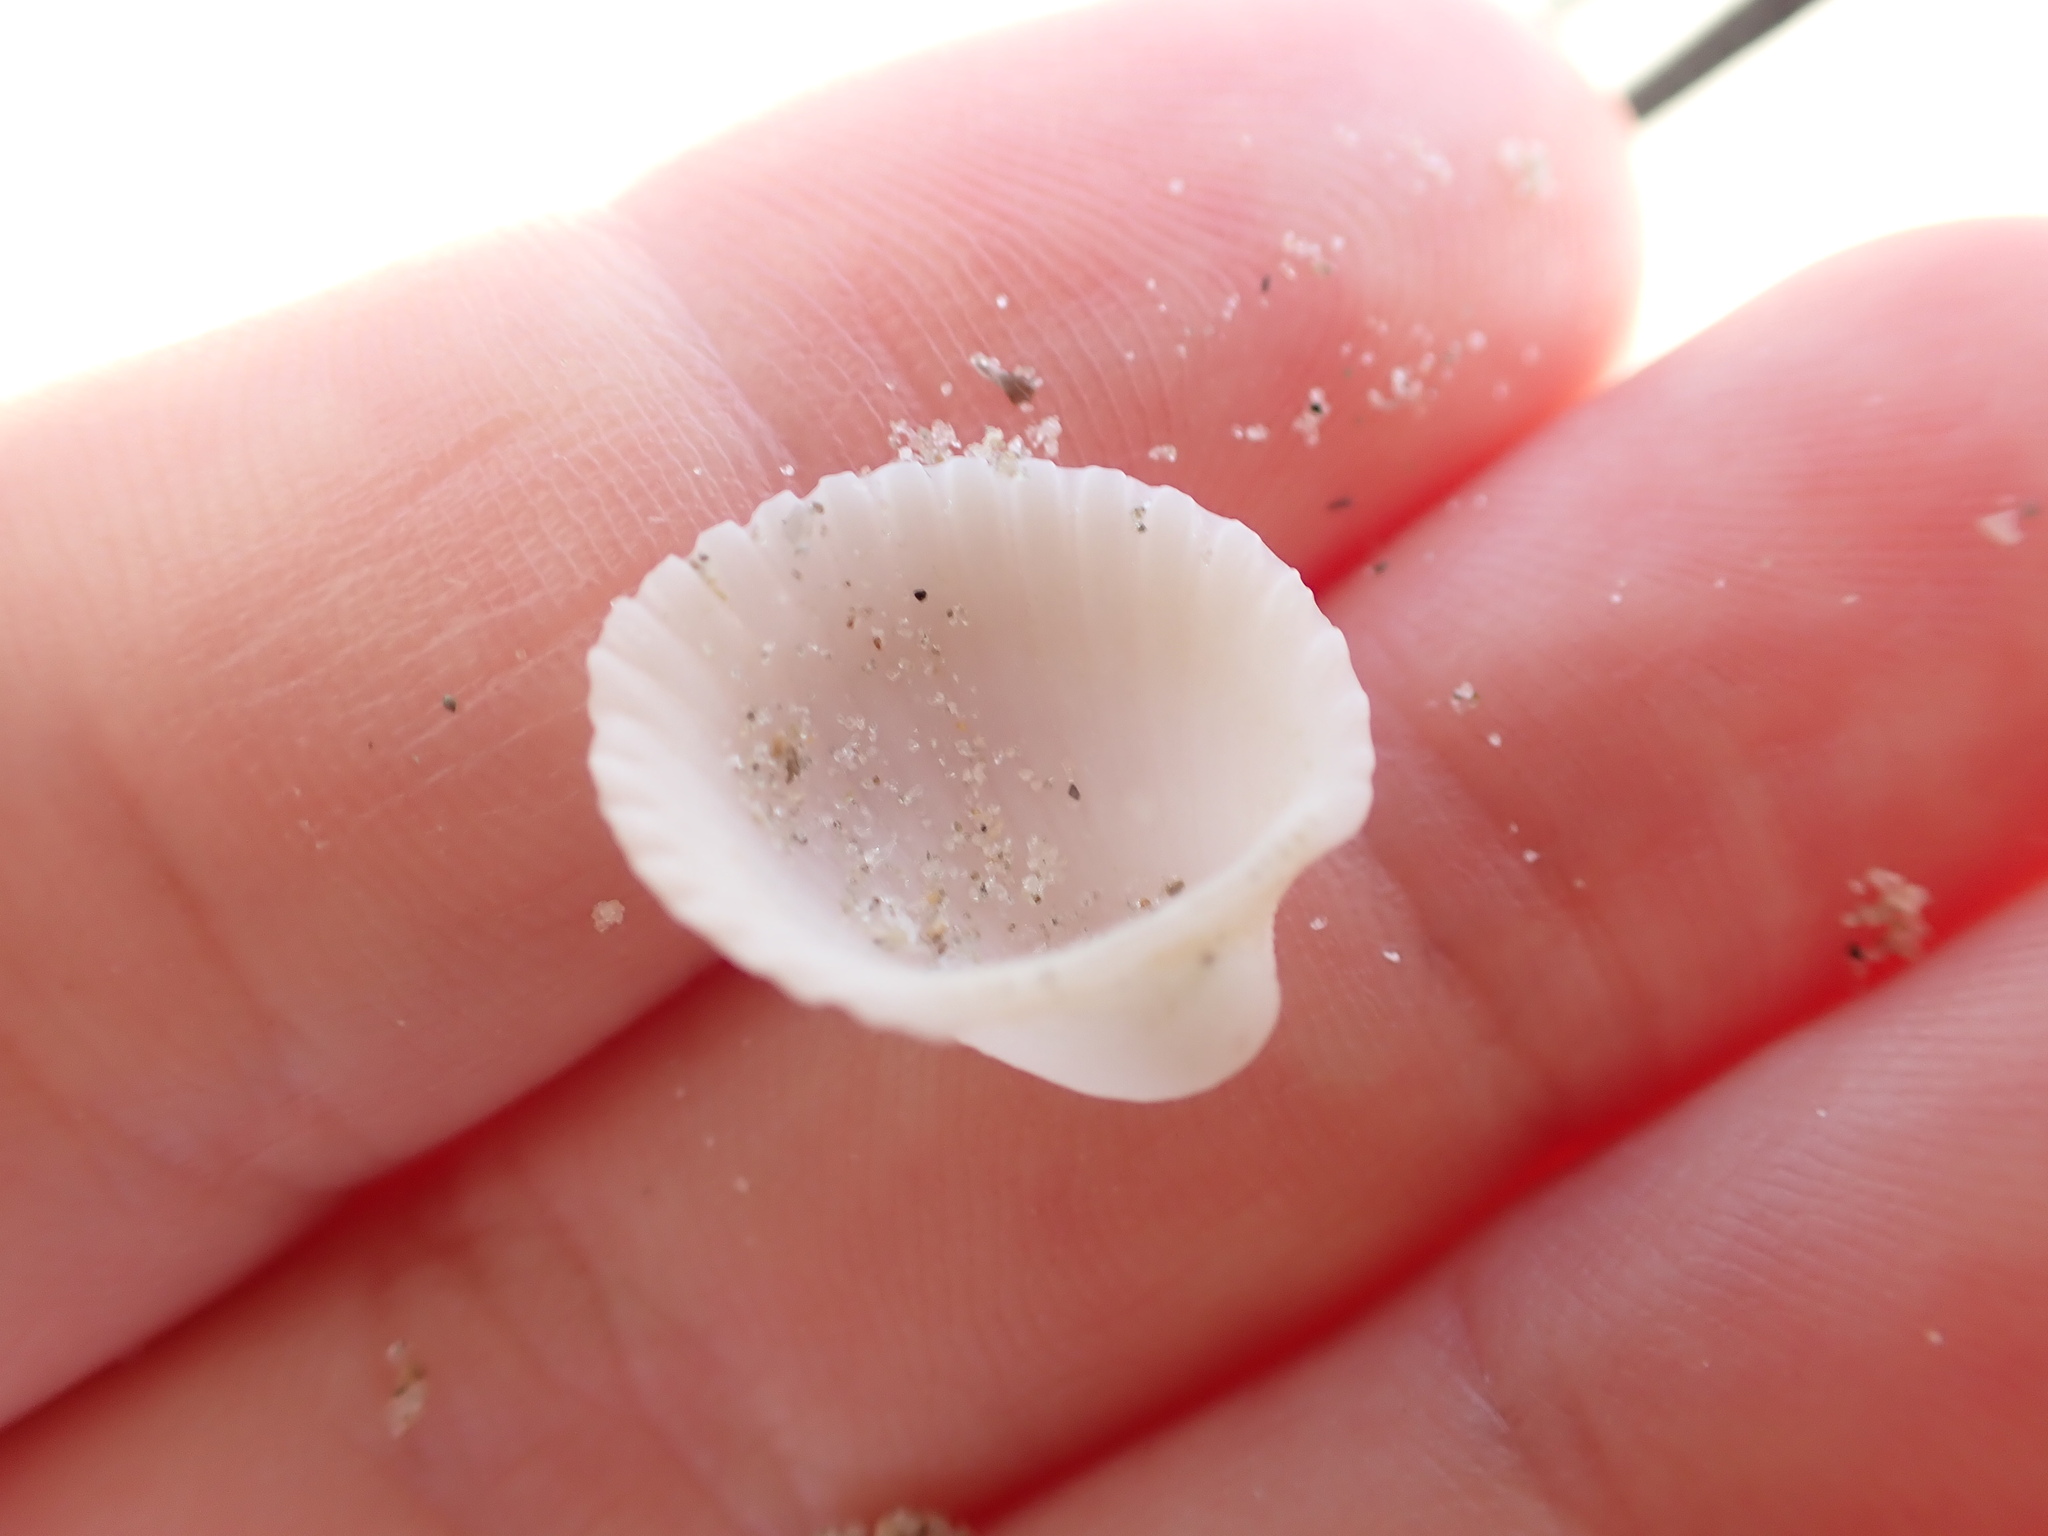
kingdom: Animalia
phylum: Mollusca
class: Bivalvia
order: Arcida
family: Arcidae
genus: Anadara
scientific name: Anadara pilula
